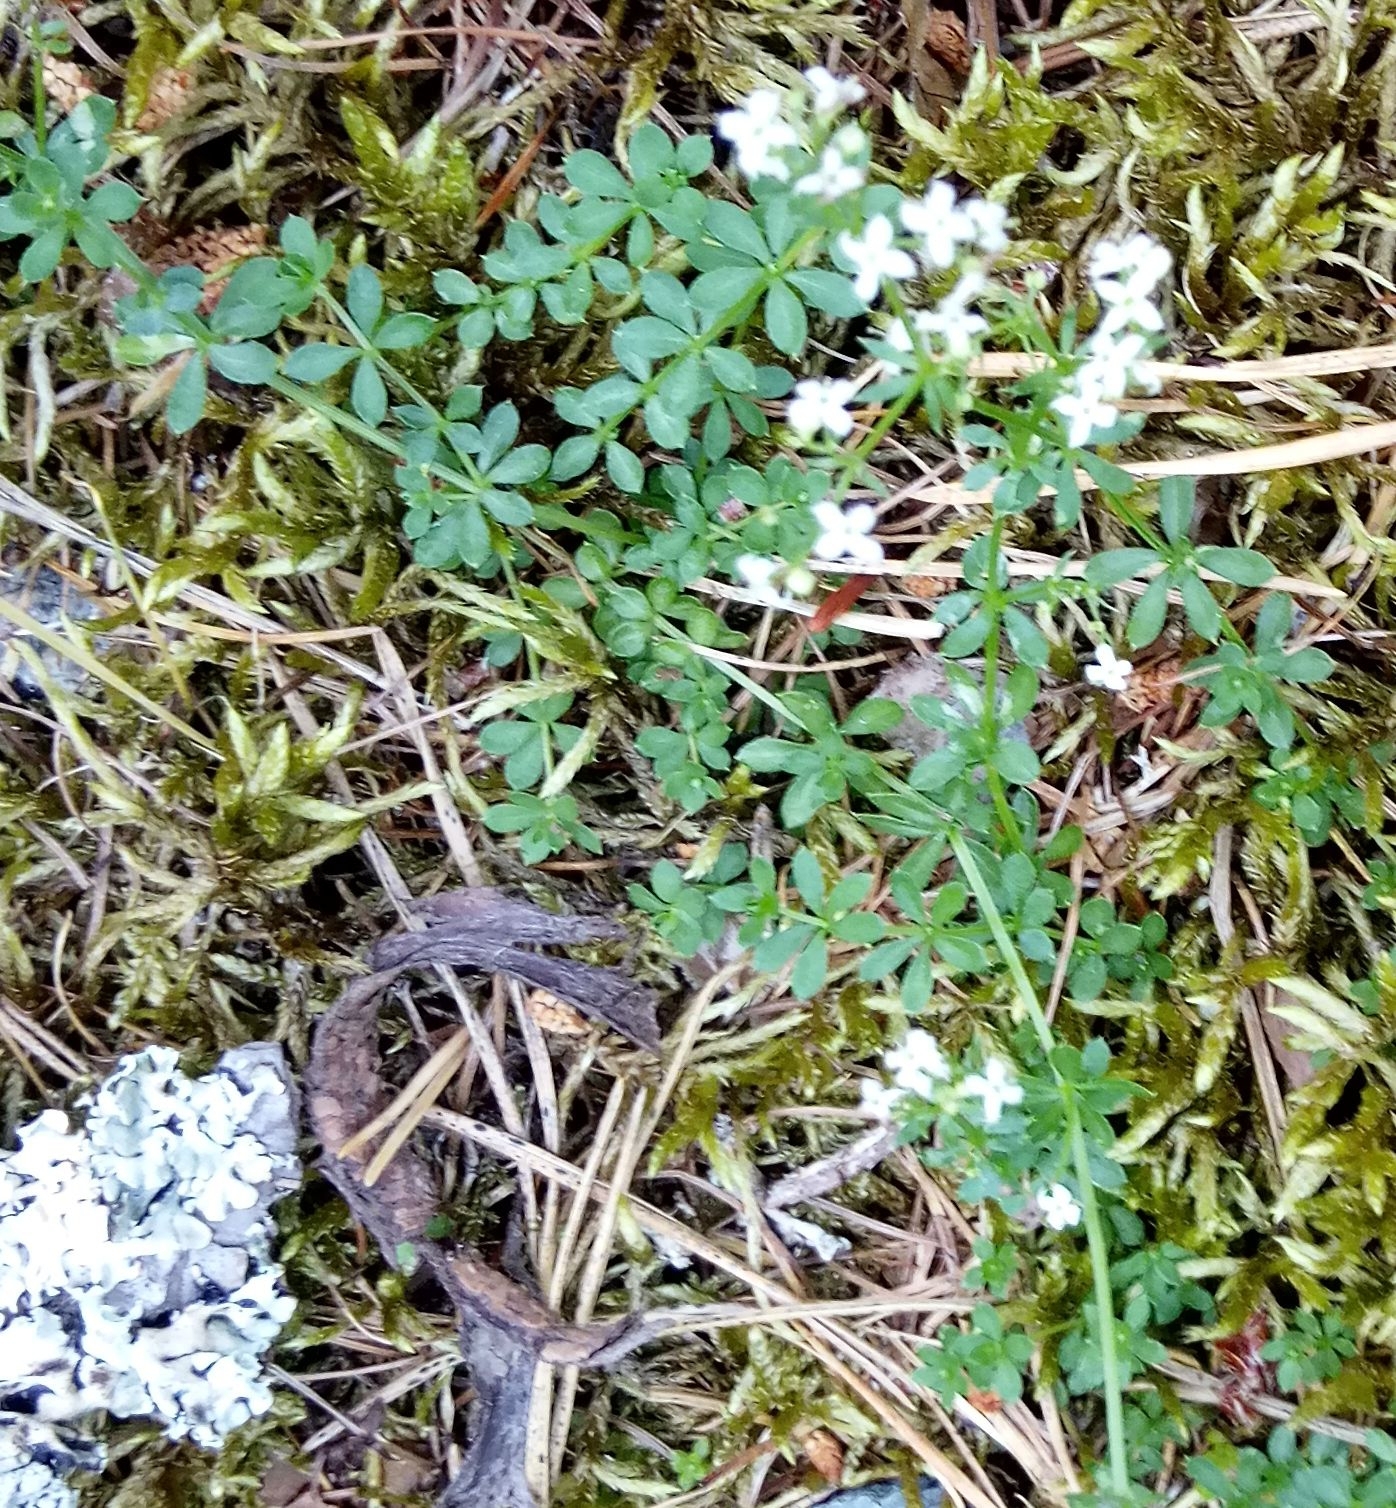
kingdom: Plantae
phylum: Tracheophyta
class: Magnoliopsida
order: Gentianales
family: Rubiaceae
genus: Galium
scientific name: Galium saxatile
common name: Heath bedstraw
